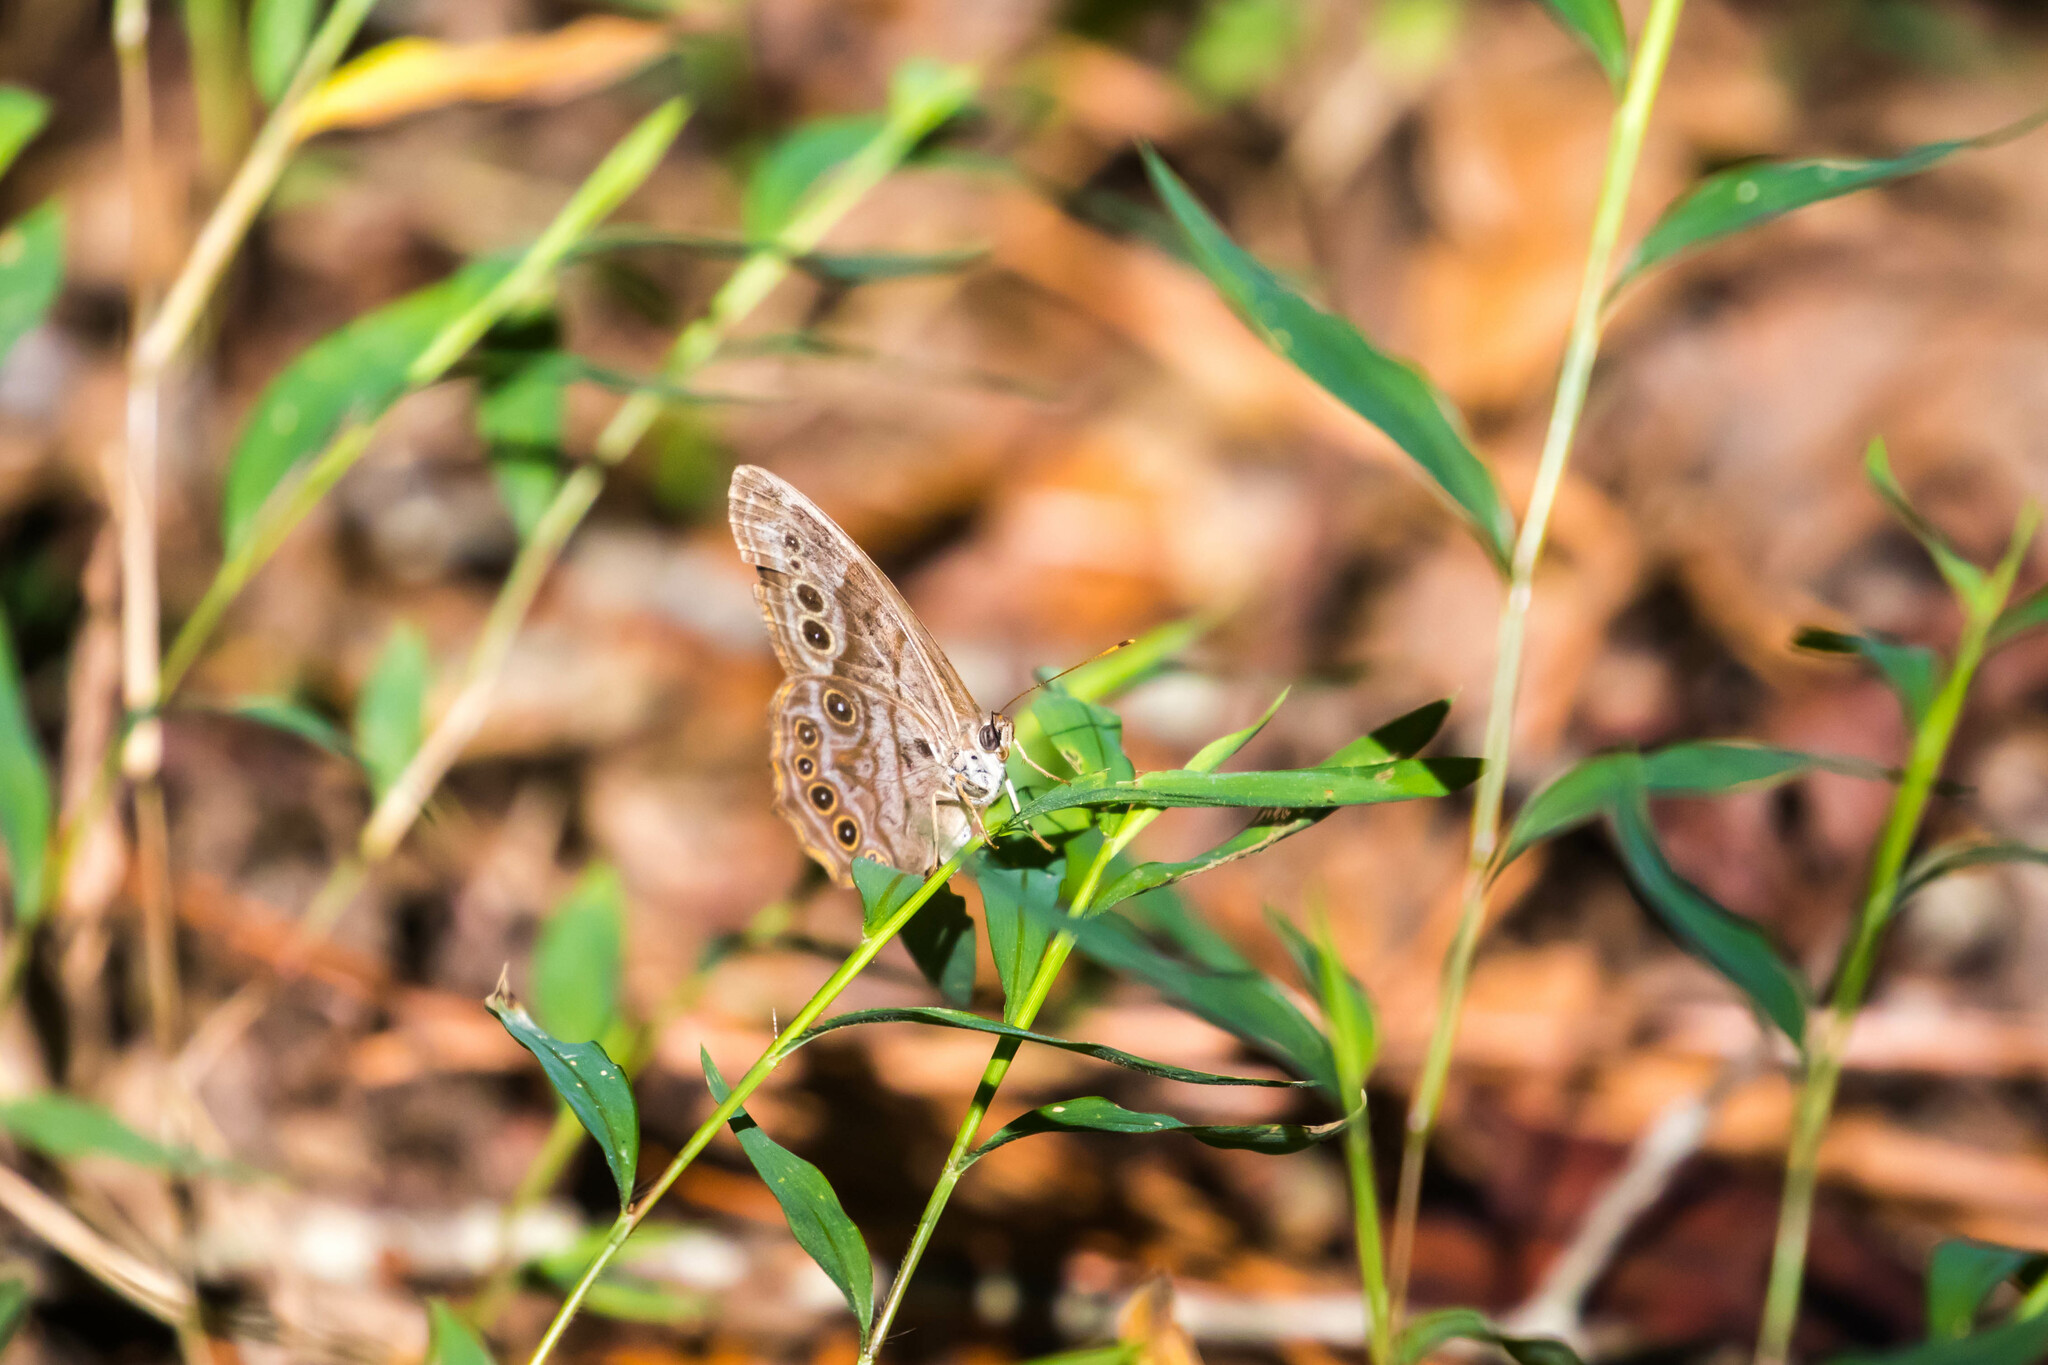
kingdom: Animalia
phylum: Arthropoda
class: Insecta
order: Lepidoptera
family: Nymphalidae
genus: Lethe
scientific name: Lethe anthedon
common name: Northern pearly-eye
